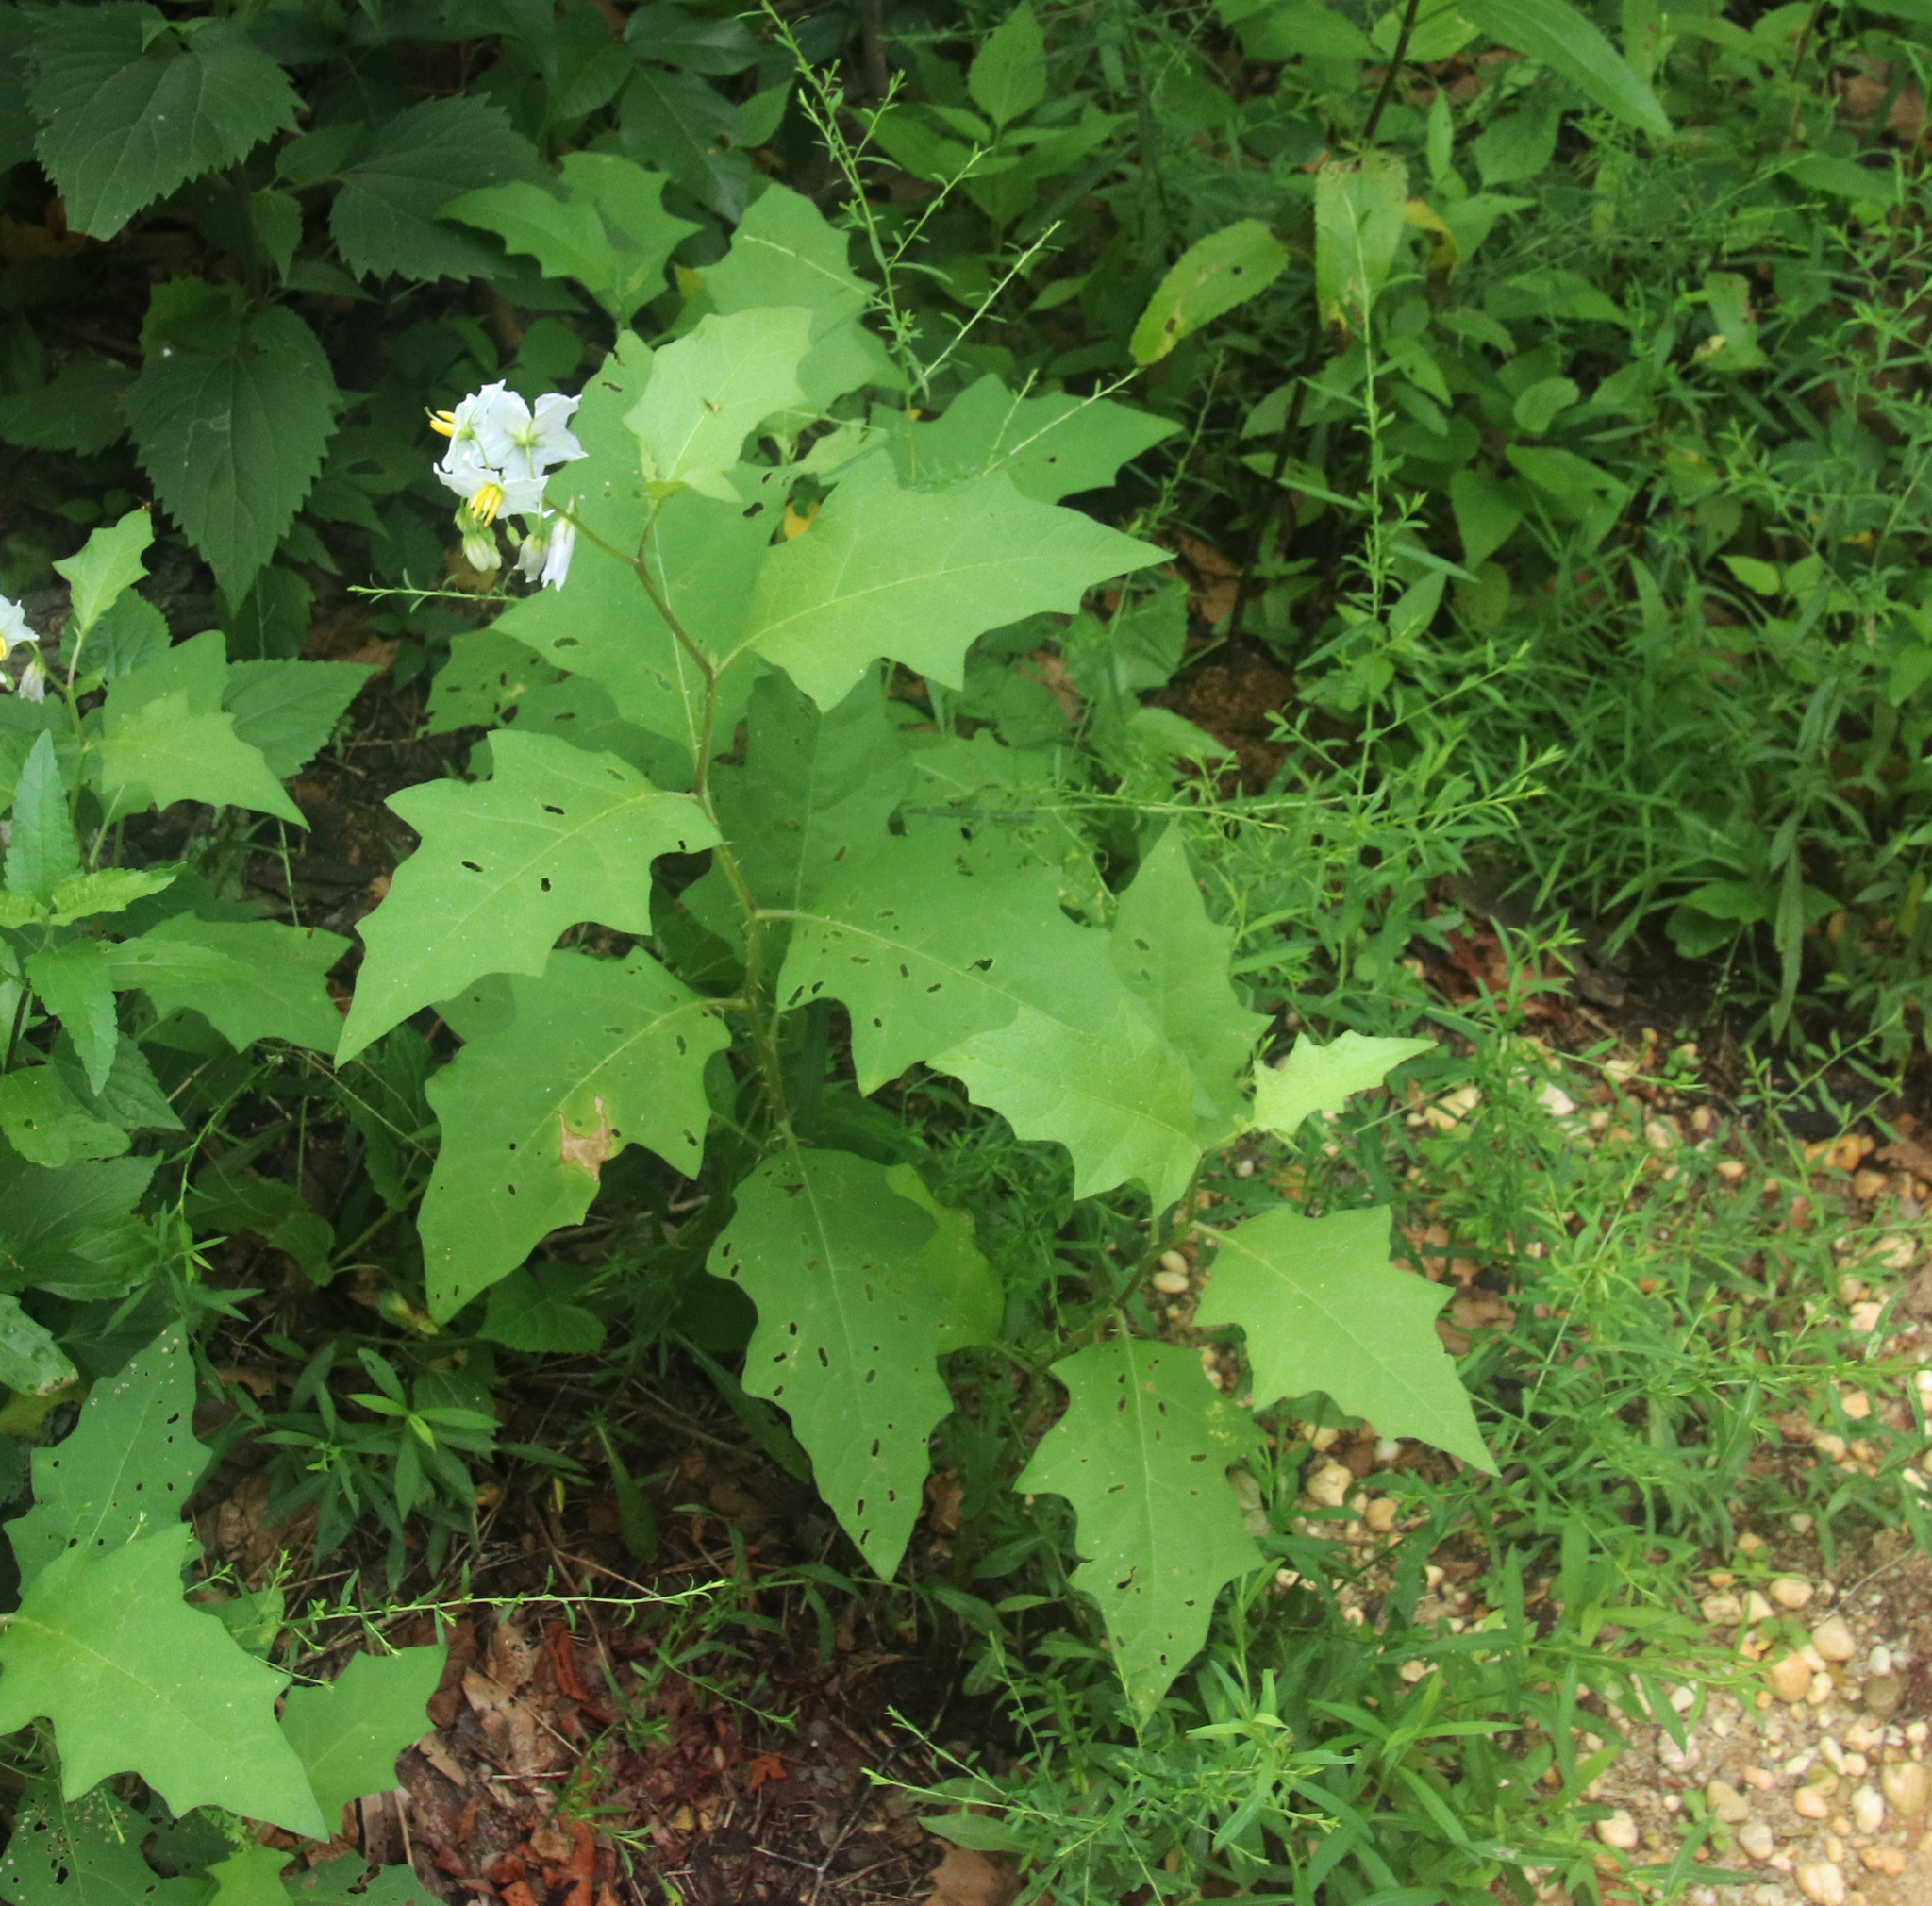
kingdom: Plantae
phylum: Tracheophyta
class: Magnoliopsida
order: Solanales
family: Solanaceae
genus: Solanum
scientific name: Solanum carolinense
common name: Horse-nettle
